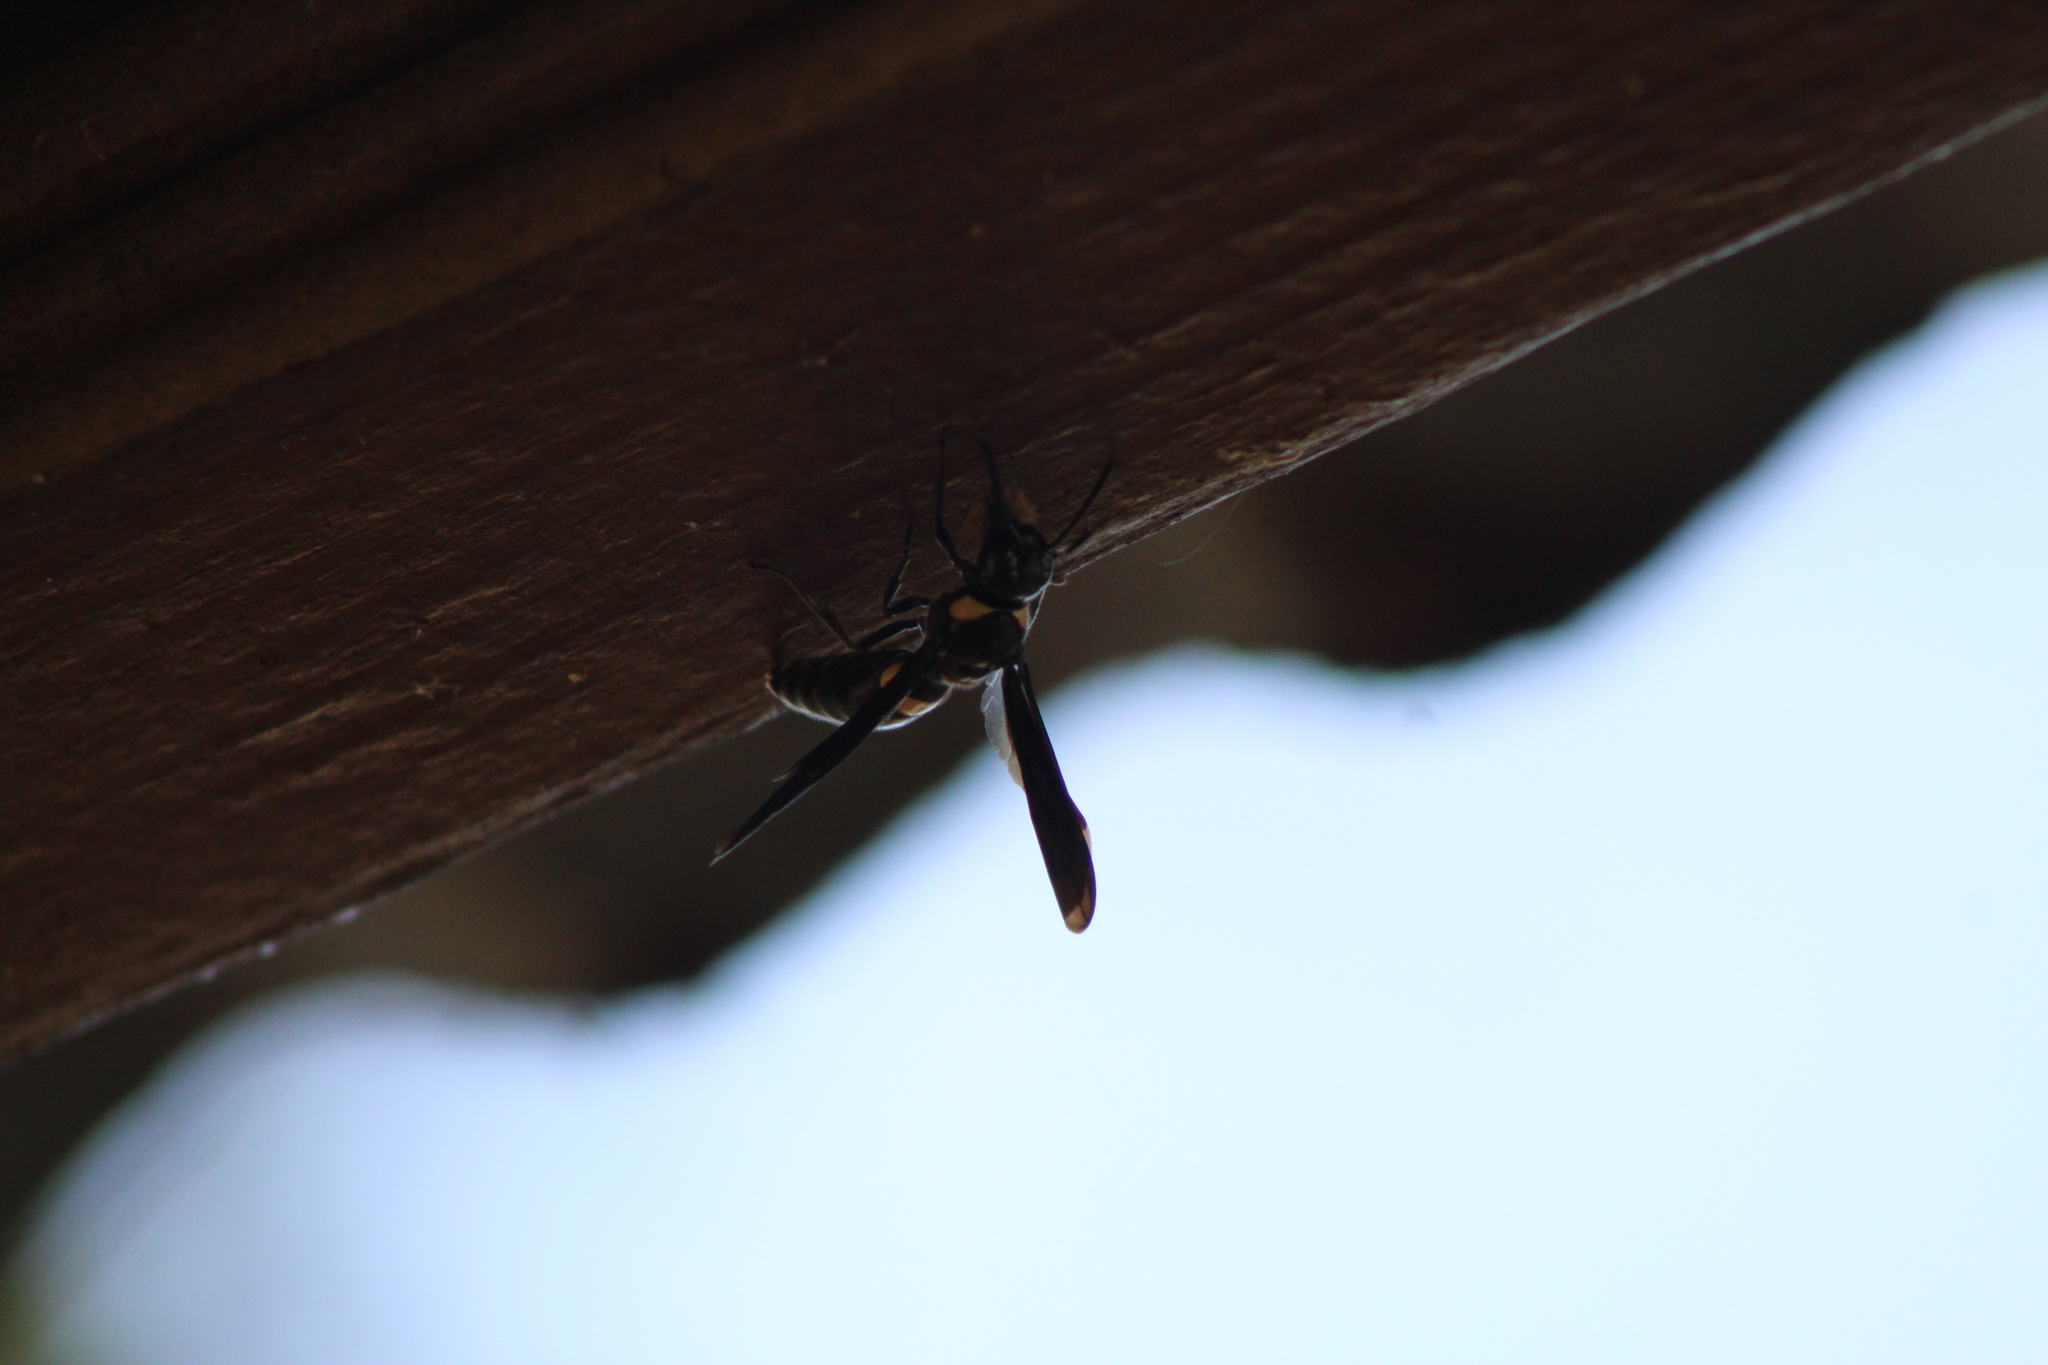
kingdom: Animalia
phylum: Arthropoda
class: Insecta
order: Hymenoptera
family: Eumenidae
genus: Monobia
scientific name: Monobia quadridens
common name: Four-toothed mason wasp
